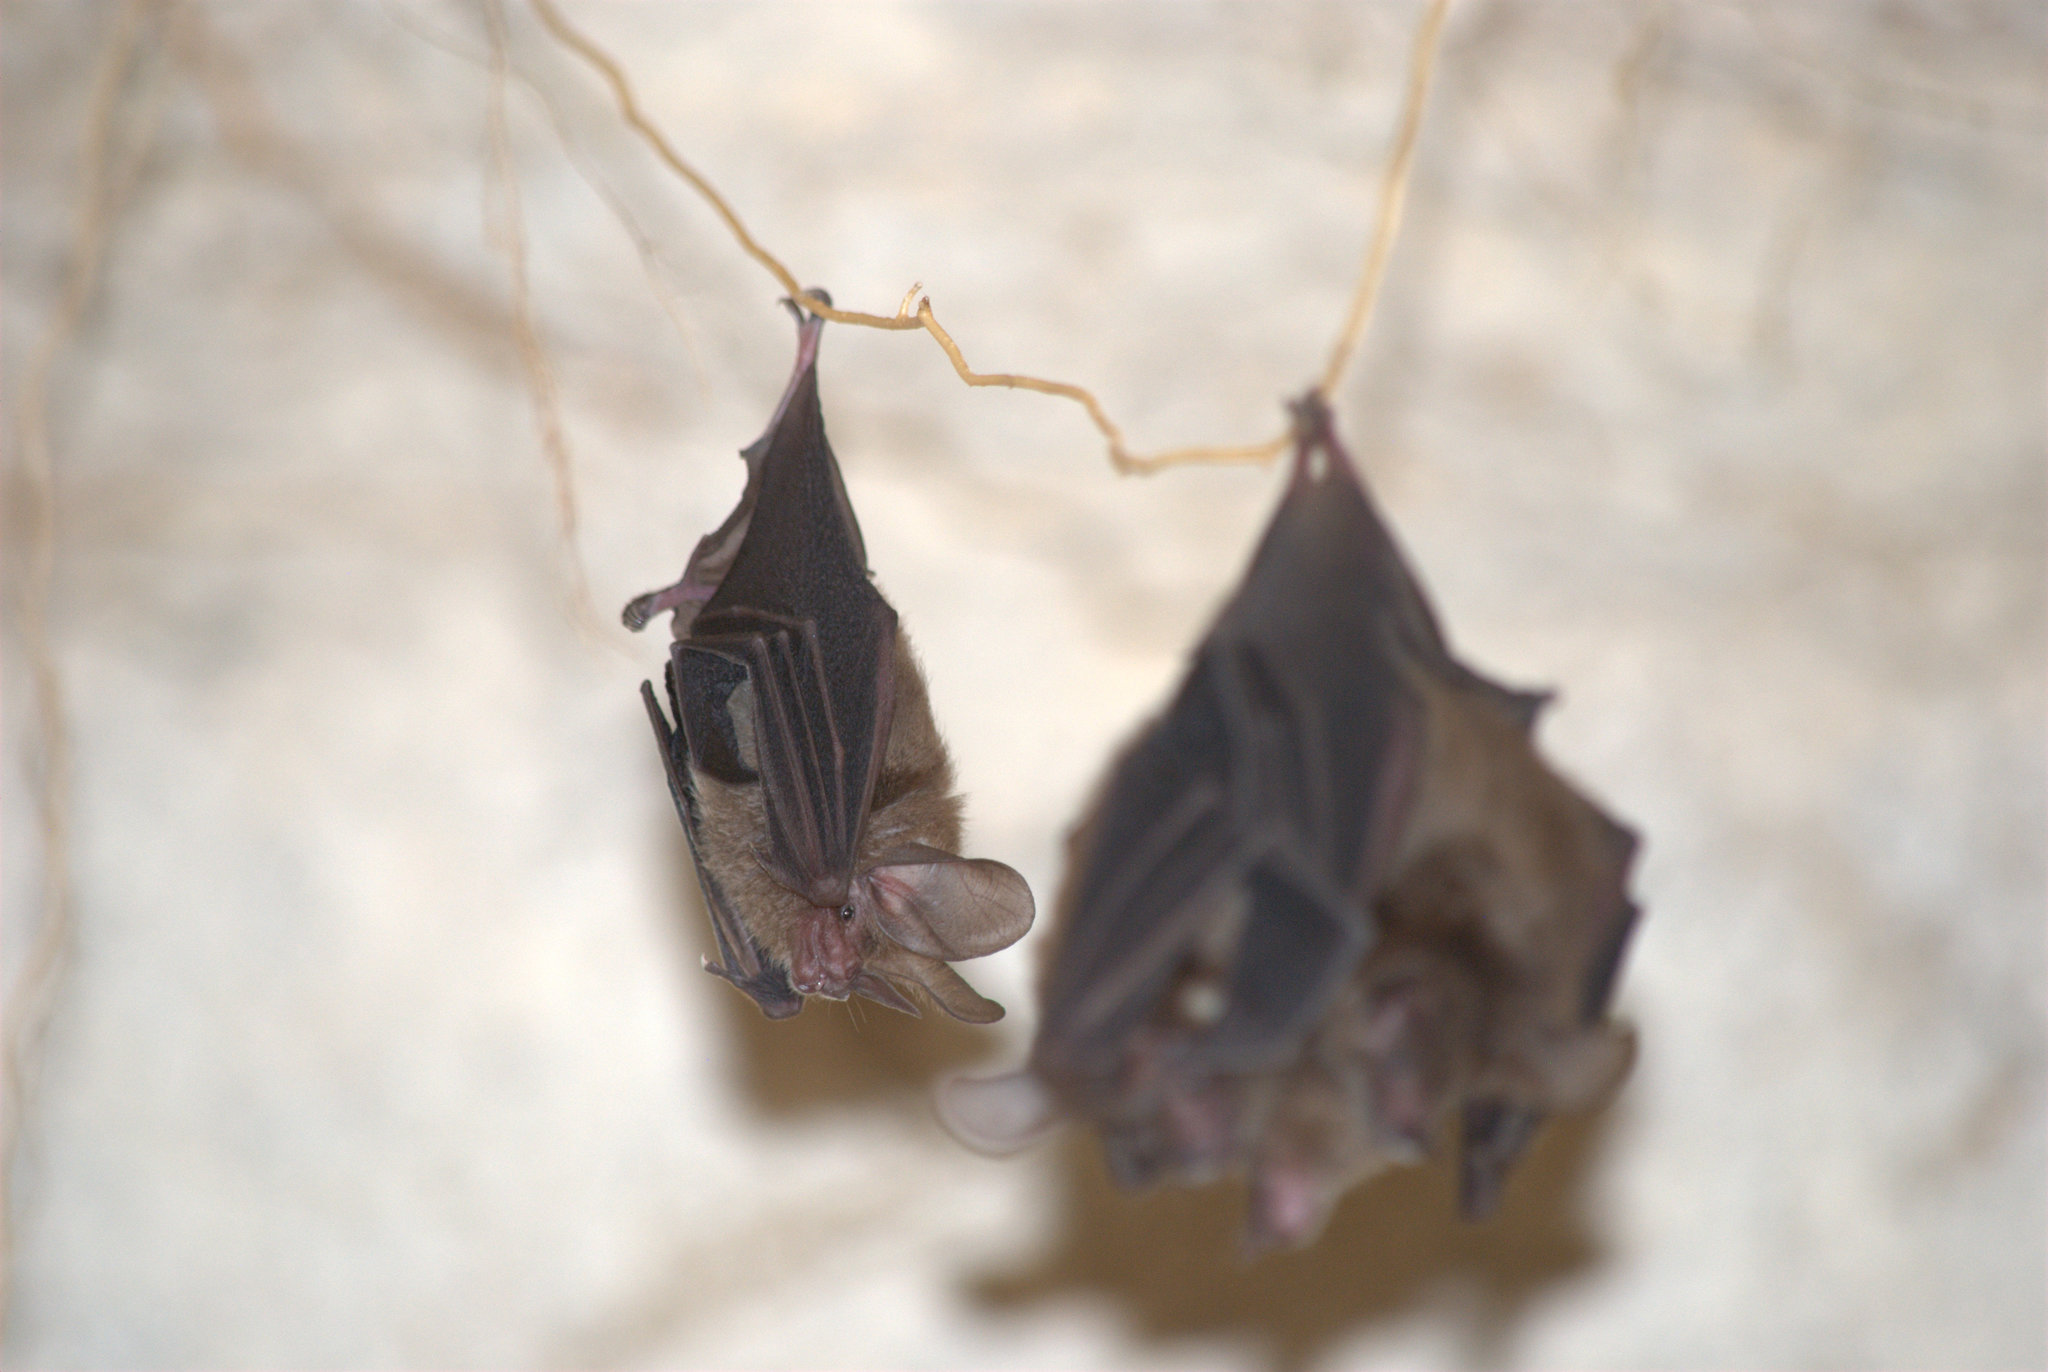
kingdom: Animalia
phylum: Chordata
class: Mammalia
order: Chiroptera
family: Phyllostomidae
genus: Micronycteris
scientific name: Micronycteris microtis
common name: Common big-eared bat
